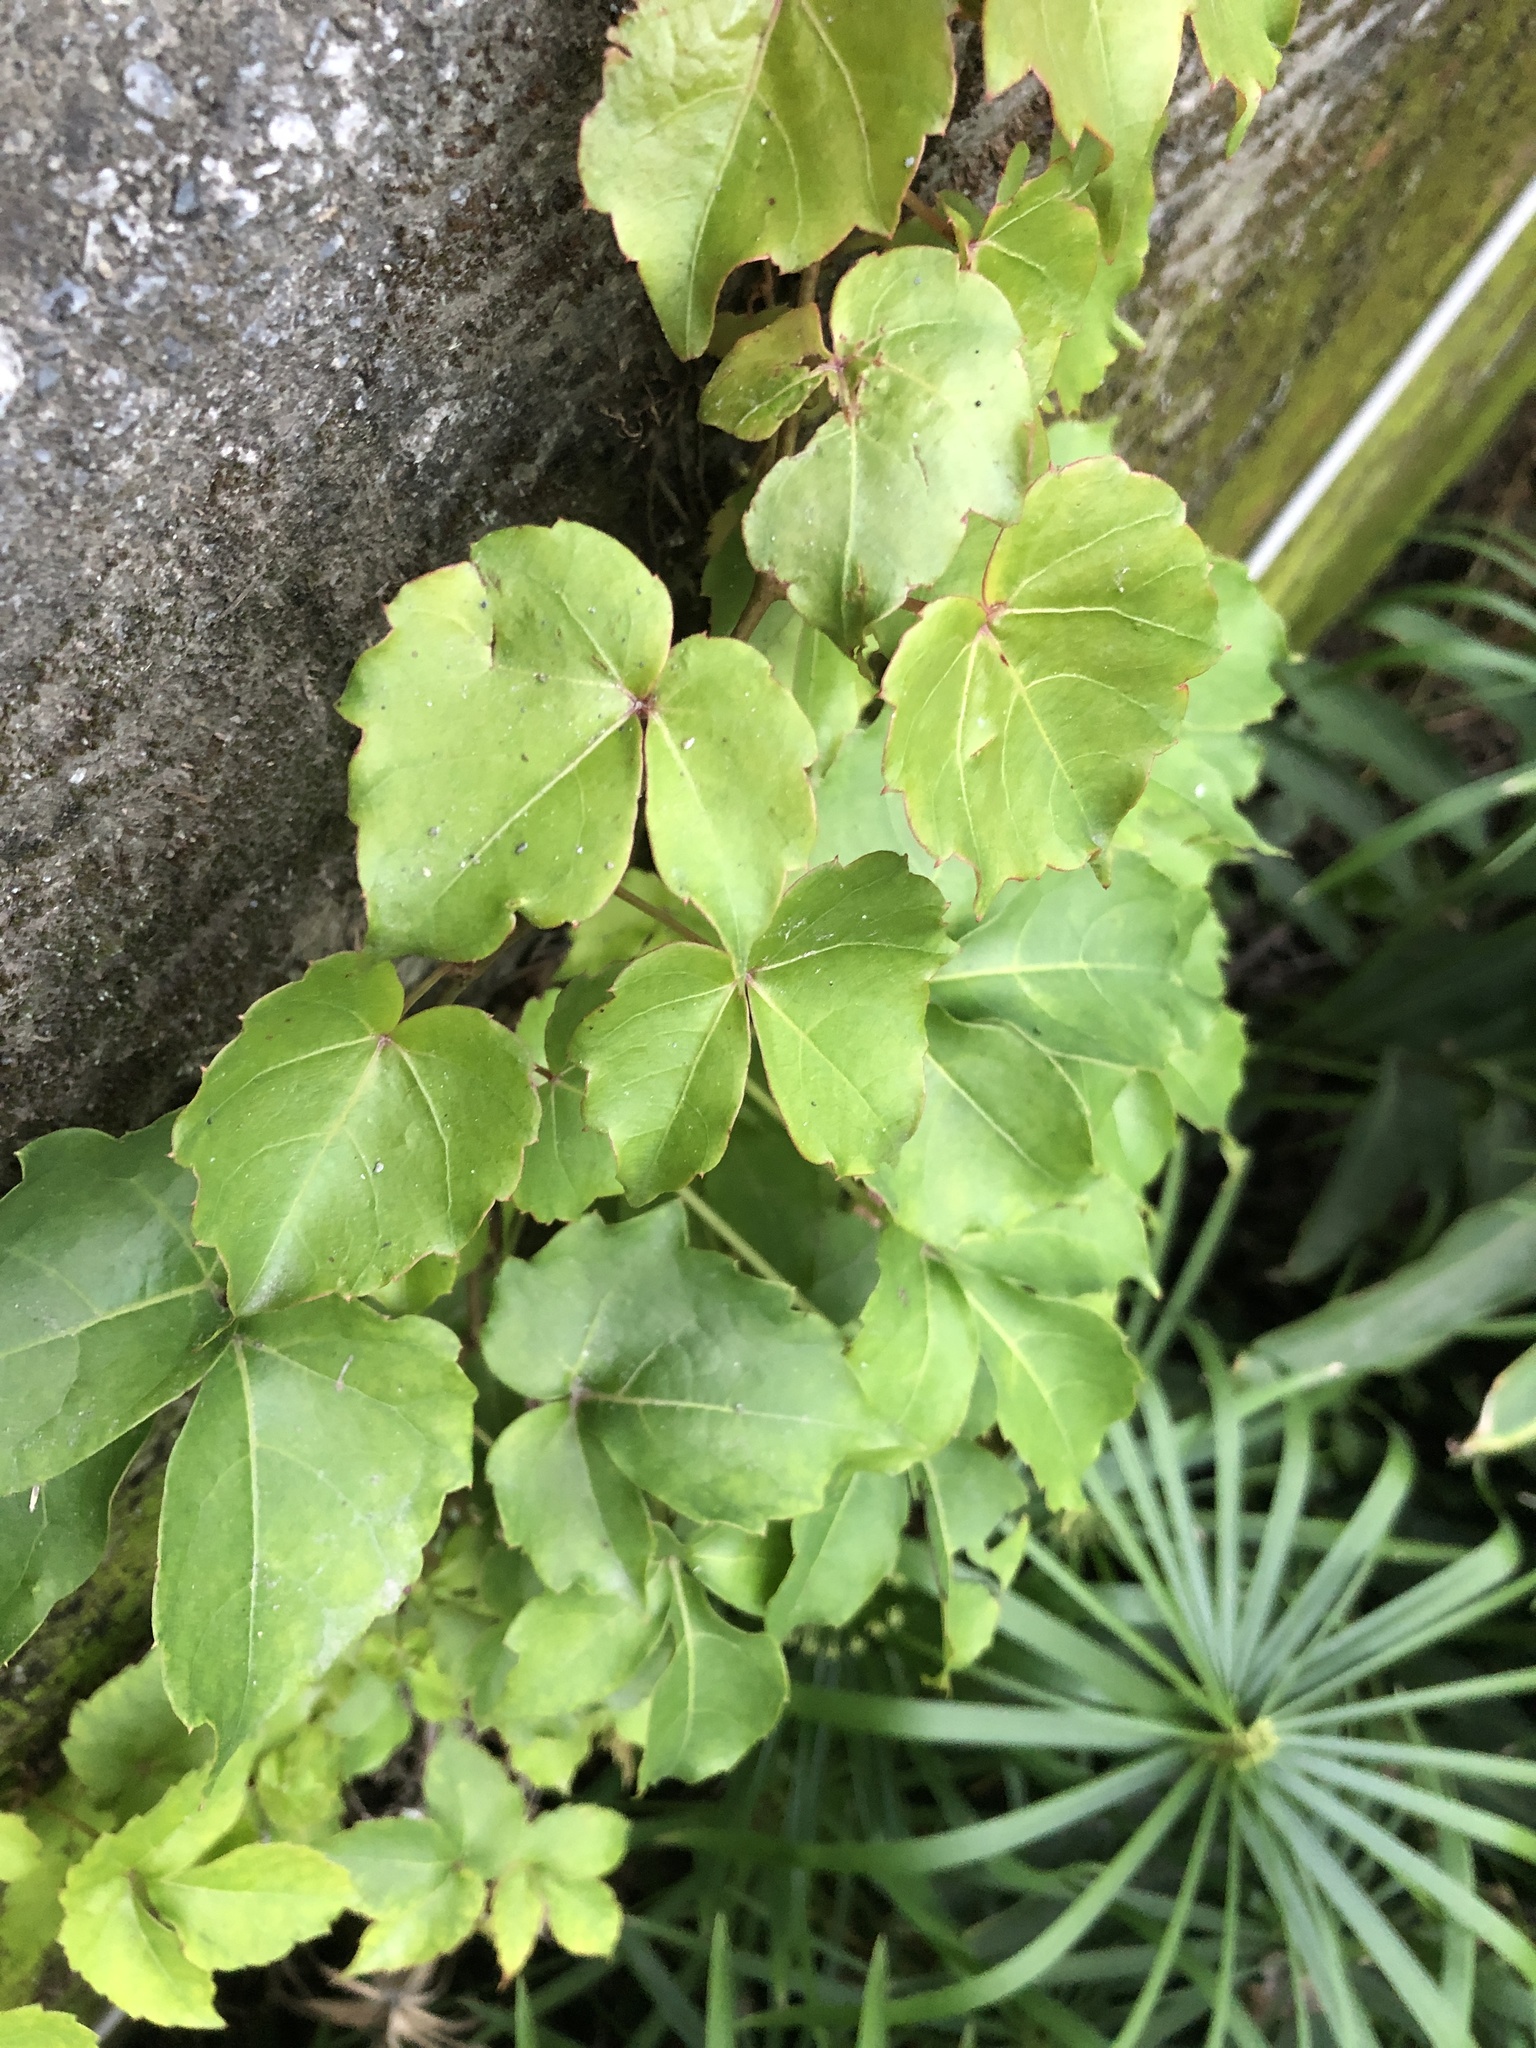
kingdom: Plantae
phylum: Tracheophyta
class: Magnoliopsida
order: Vitales
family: Vitaceae
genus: Parthenocissus
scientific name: Parthenocissus tricuspidata
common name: Boston ivy
